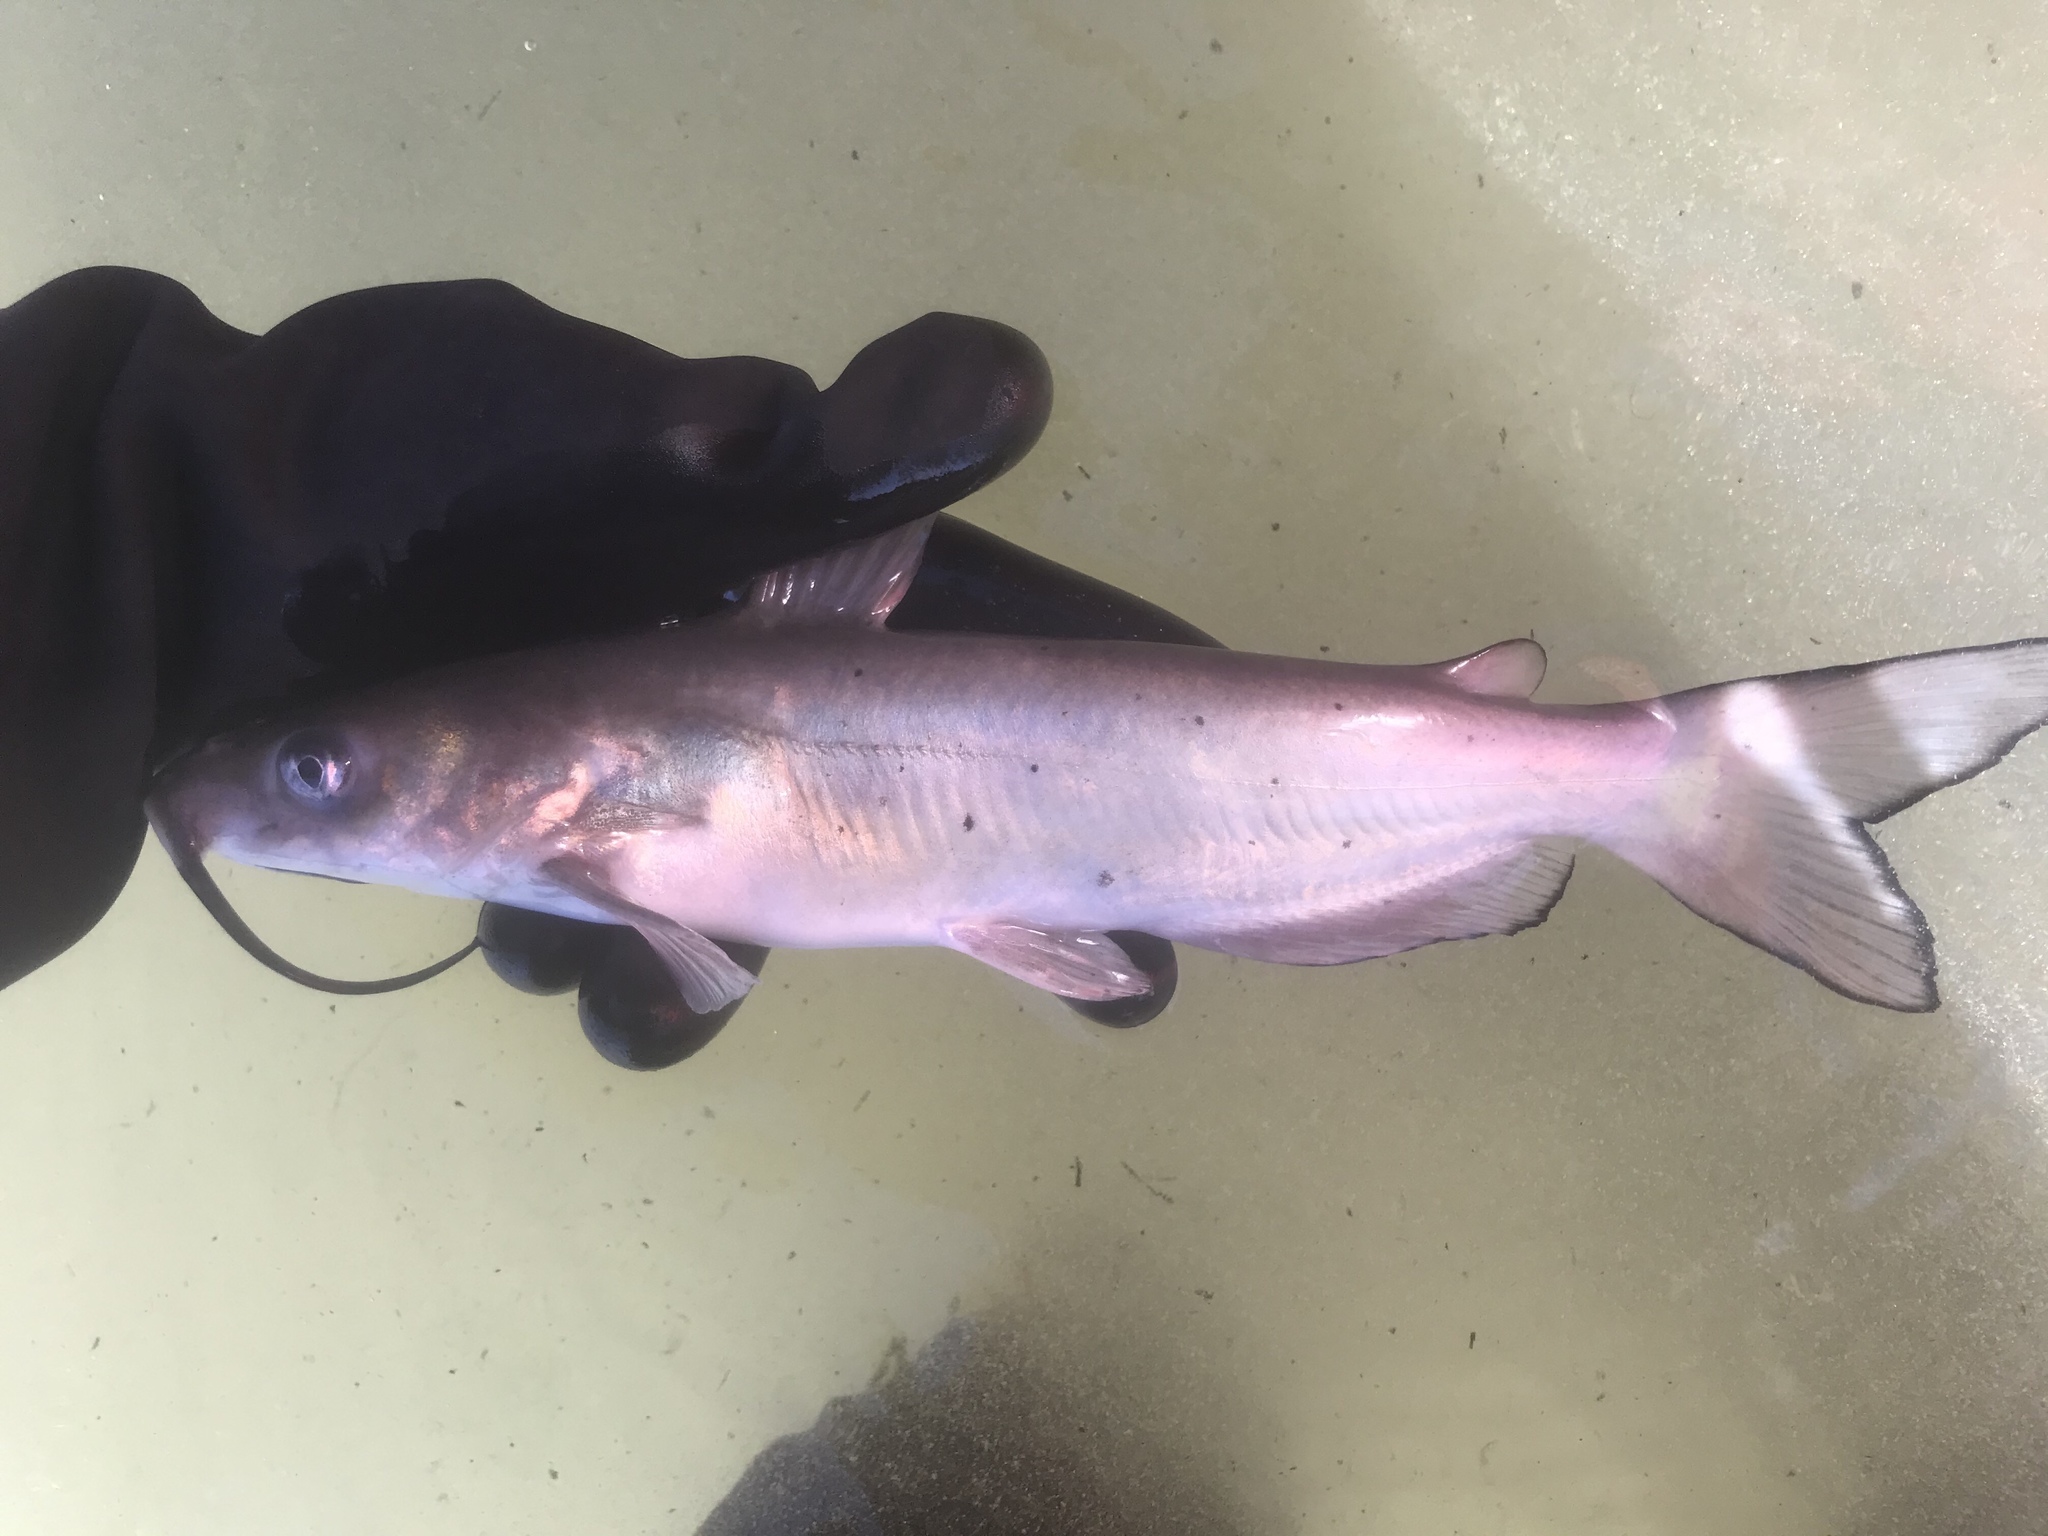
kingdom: Animalia
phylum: Chordata
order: Siluriformes
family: Ictaluridae
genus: Ictalurus
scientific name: Ictalurus punctatus
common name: Channel catfish
